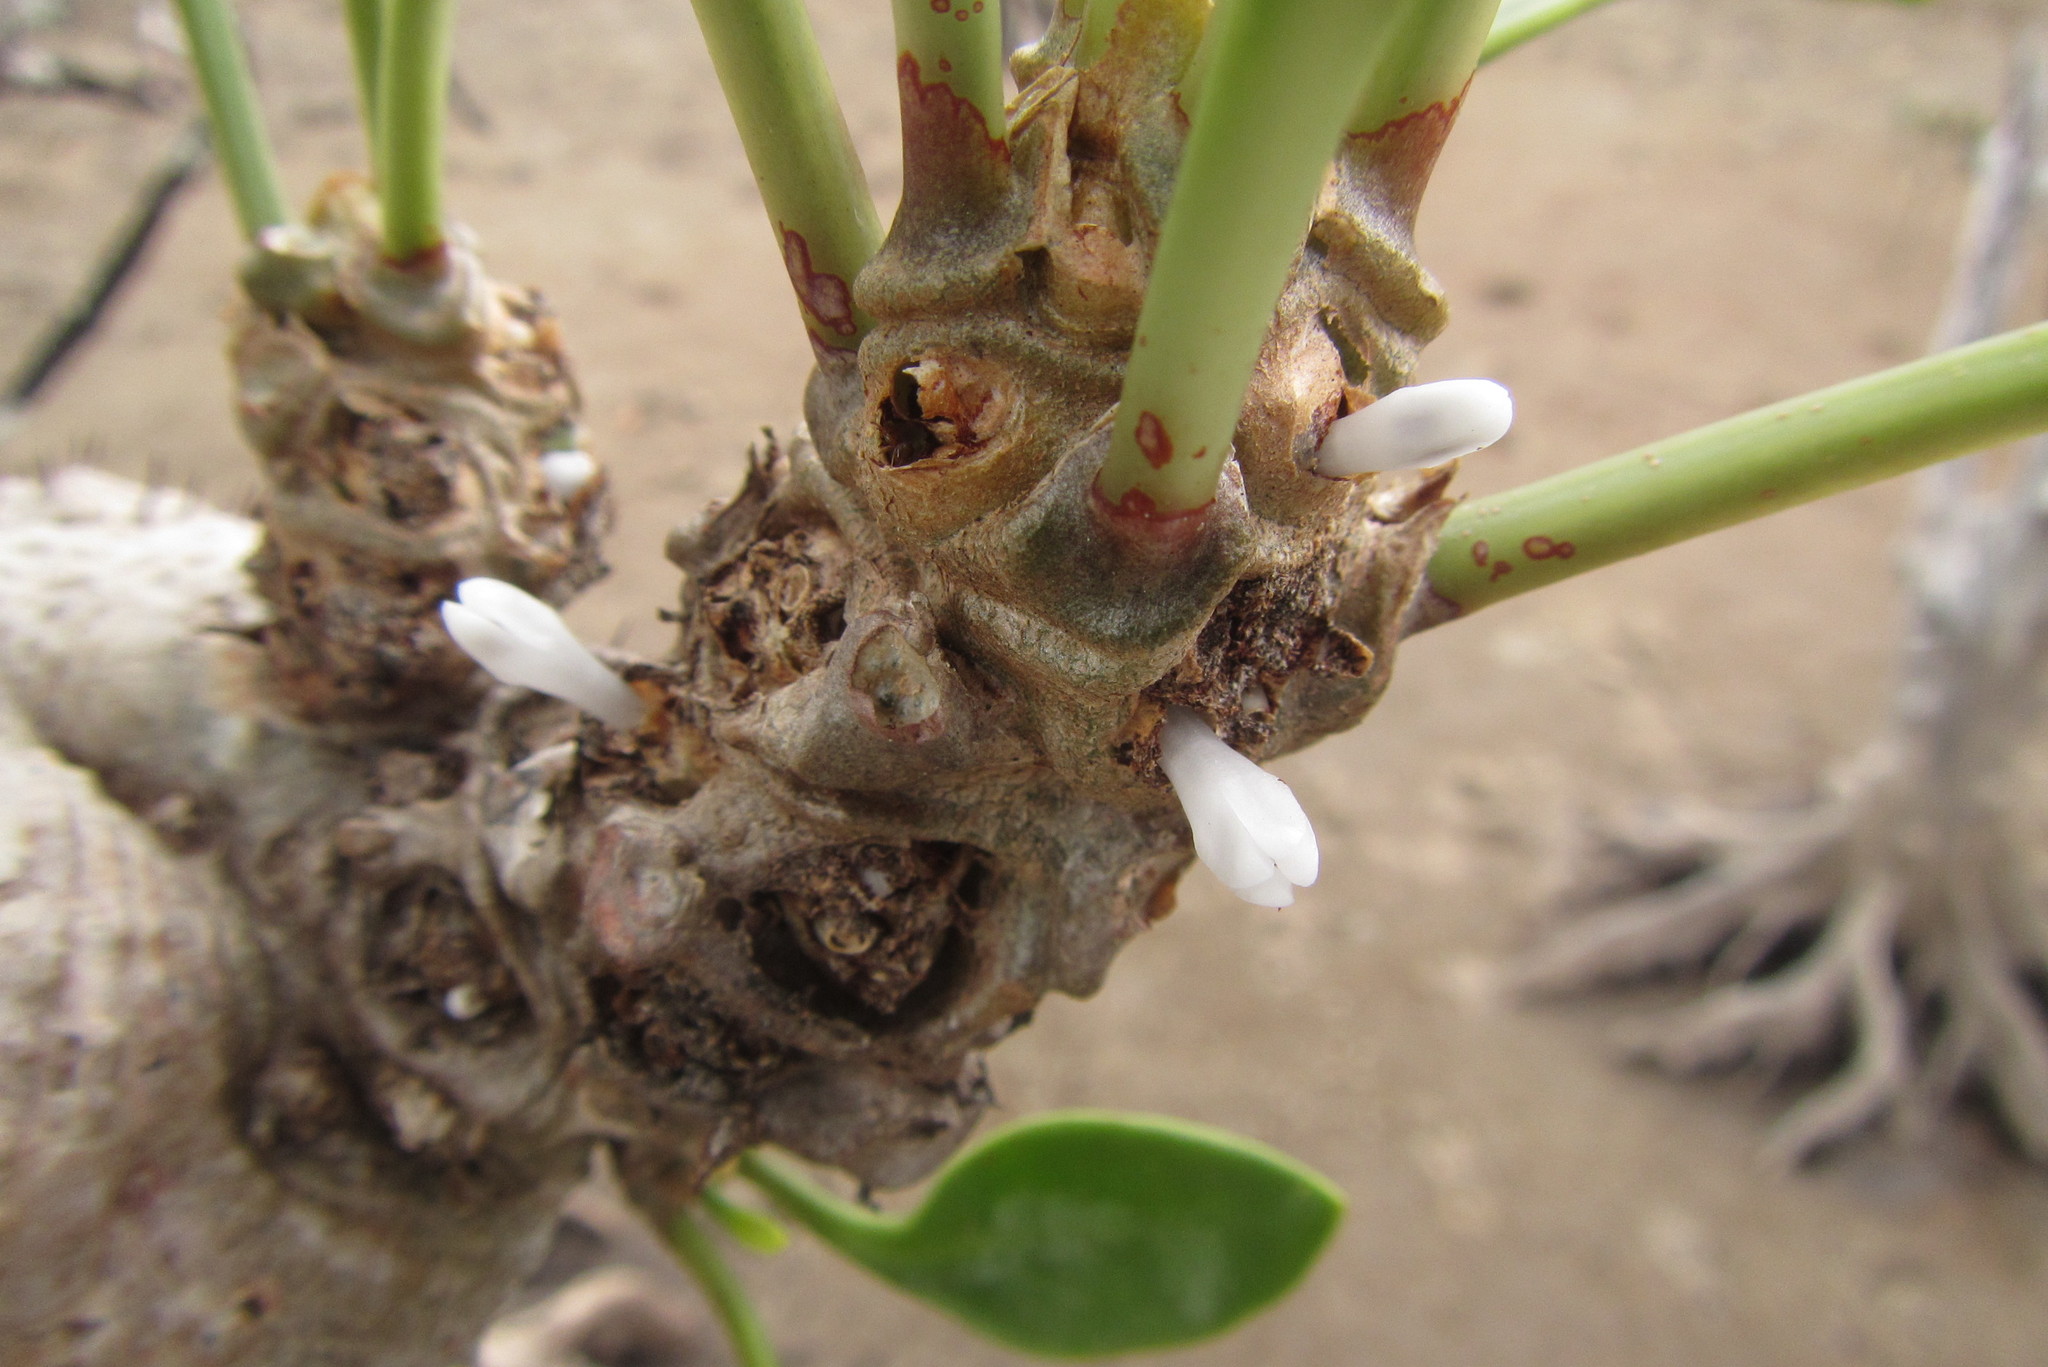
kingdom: Plantae
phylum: Tracheophyta
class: Magnoliopsida
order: Gentianales
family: Rubiaceae
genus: Myrmecodia
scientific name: Myrmecodia beccarii
